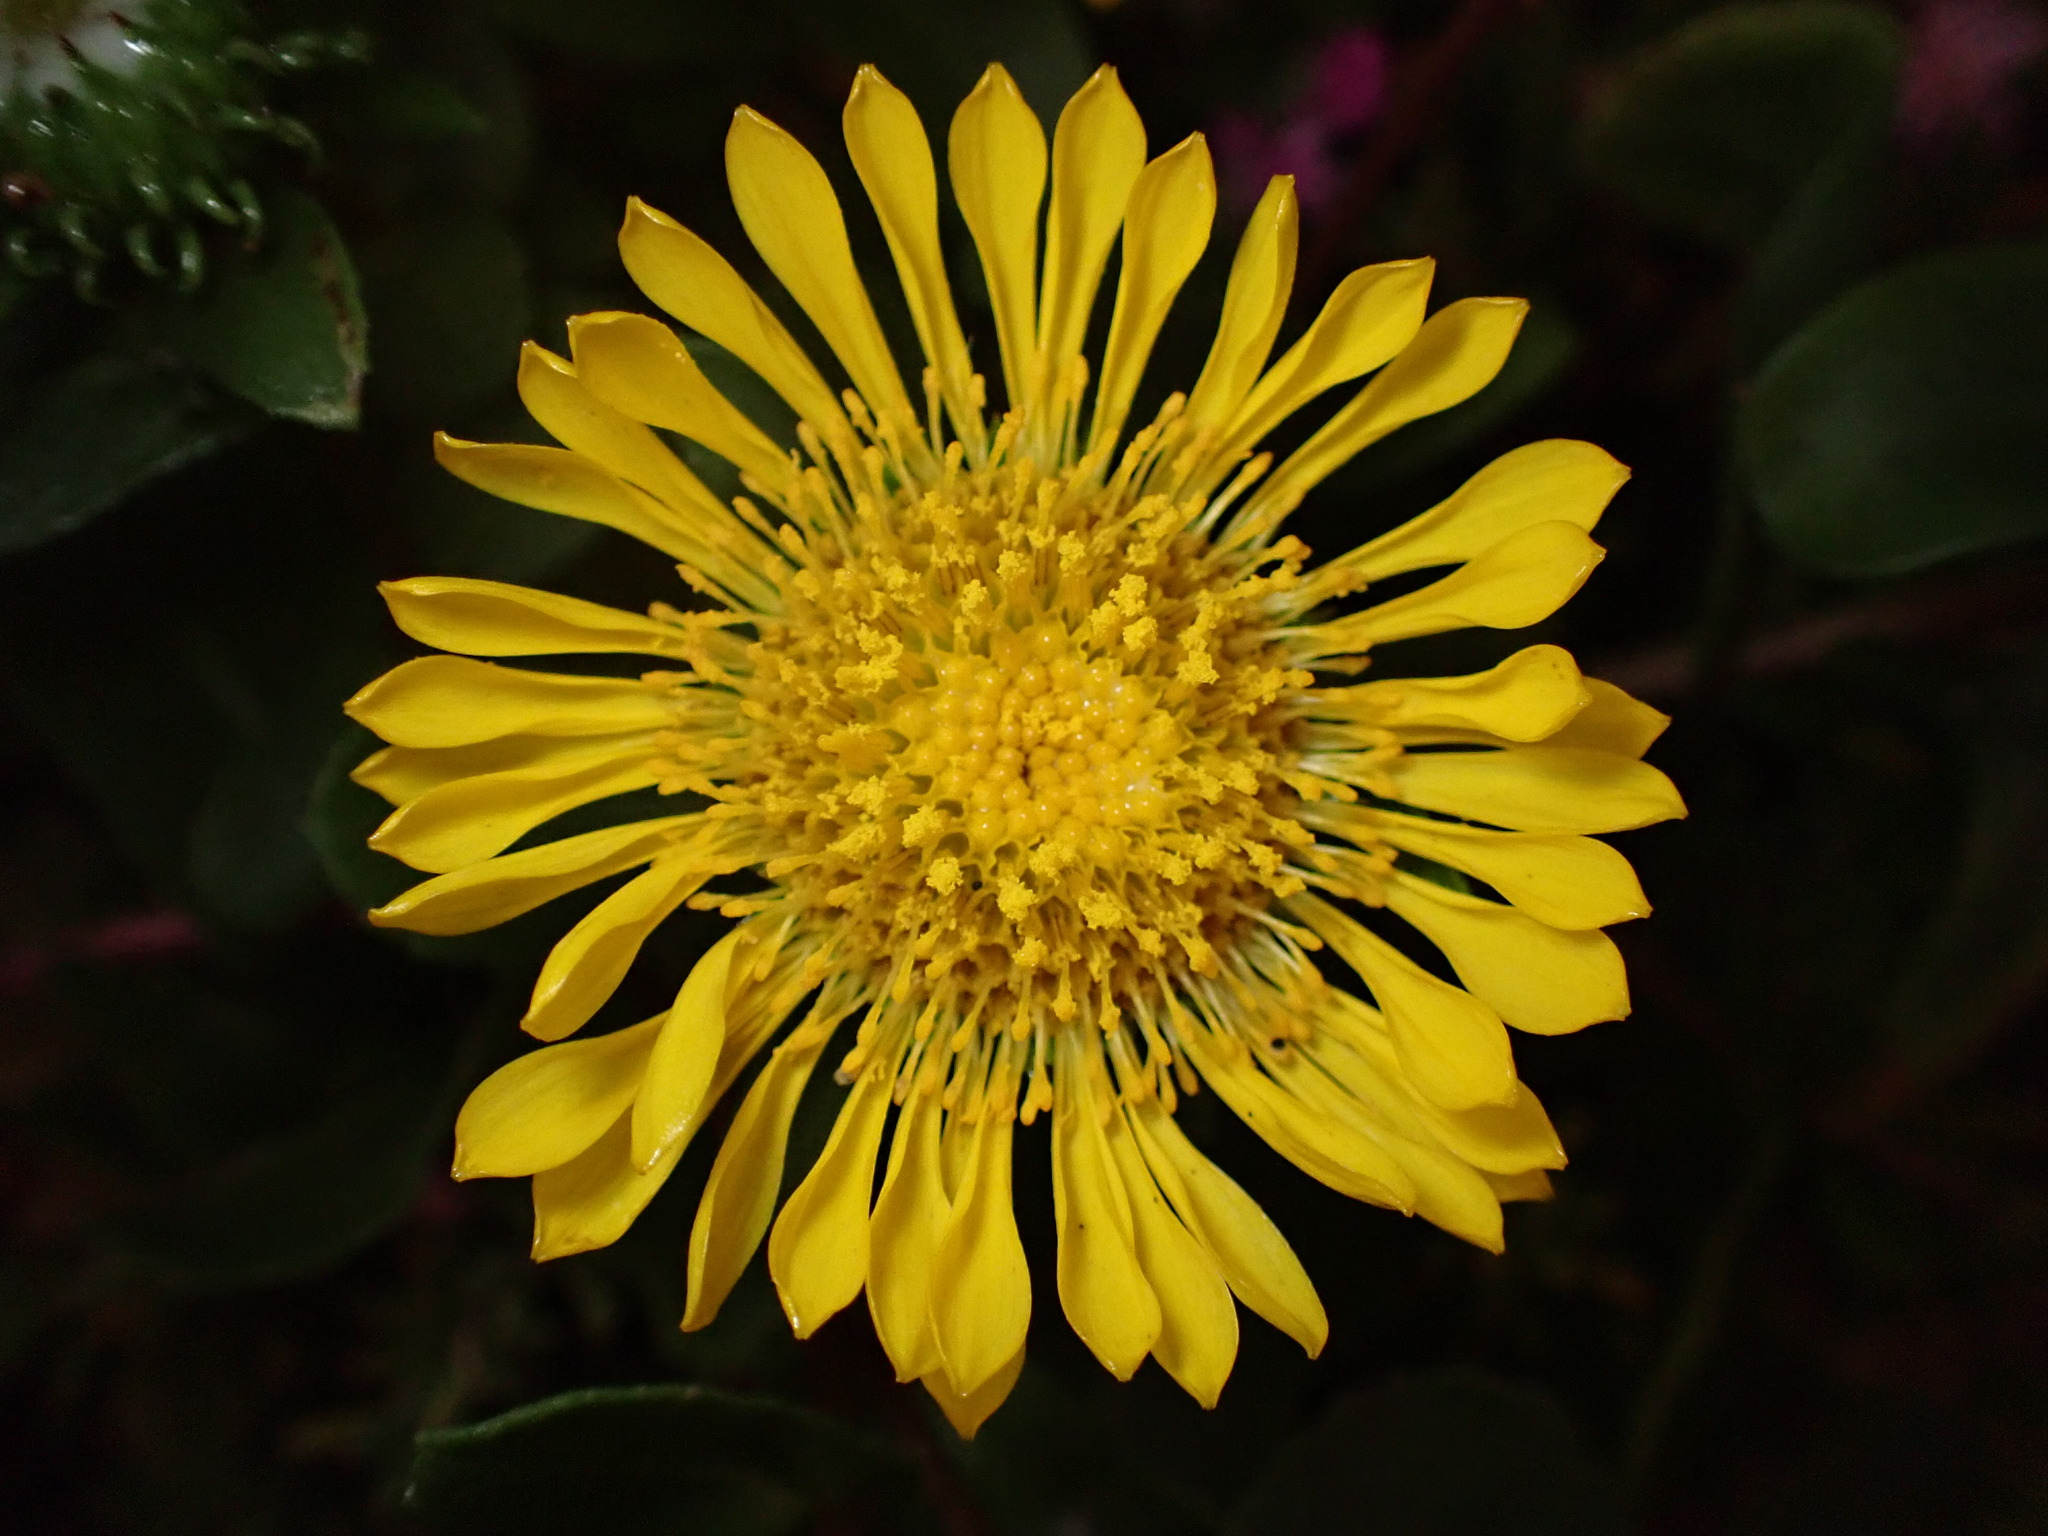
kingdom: Plantae
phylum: Tracheophyta
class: Magnoliopsida
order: Asterales
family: Asteraceae
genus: Grindelia
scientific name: Grindelia hirsutula
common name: Hairy gumweed
